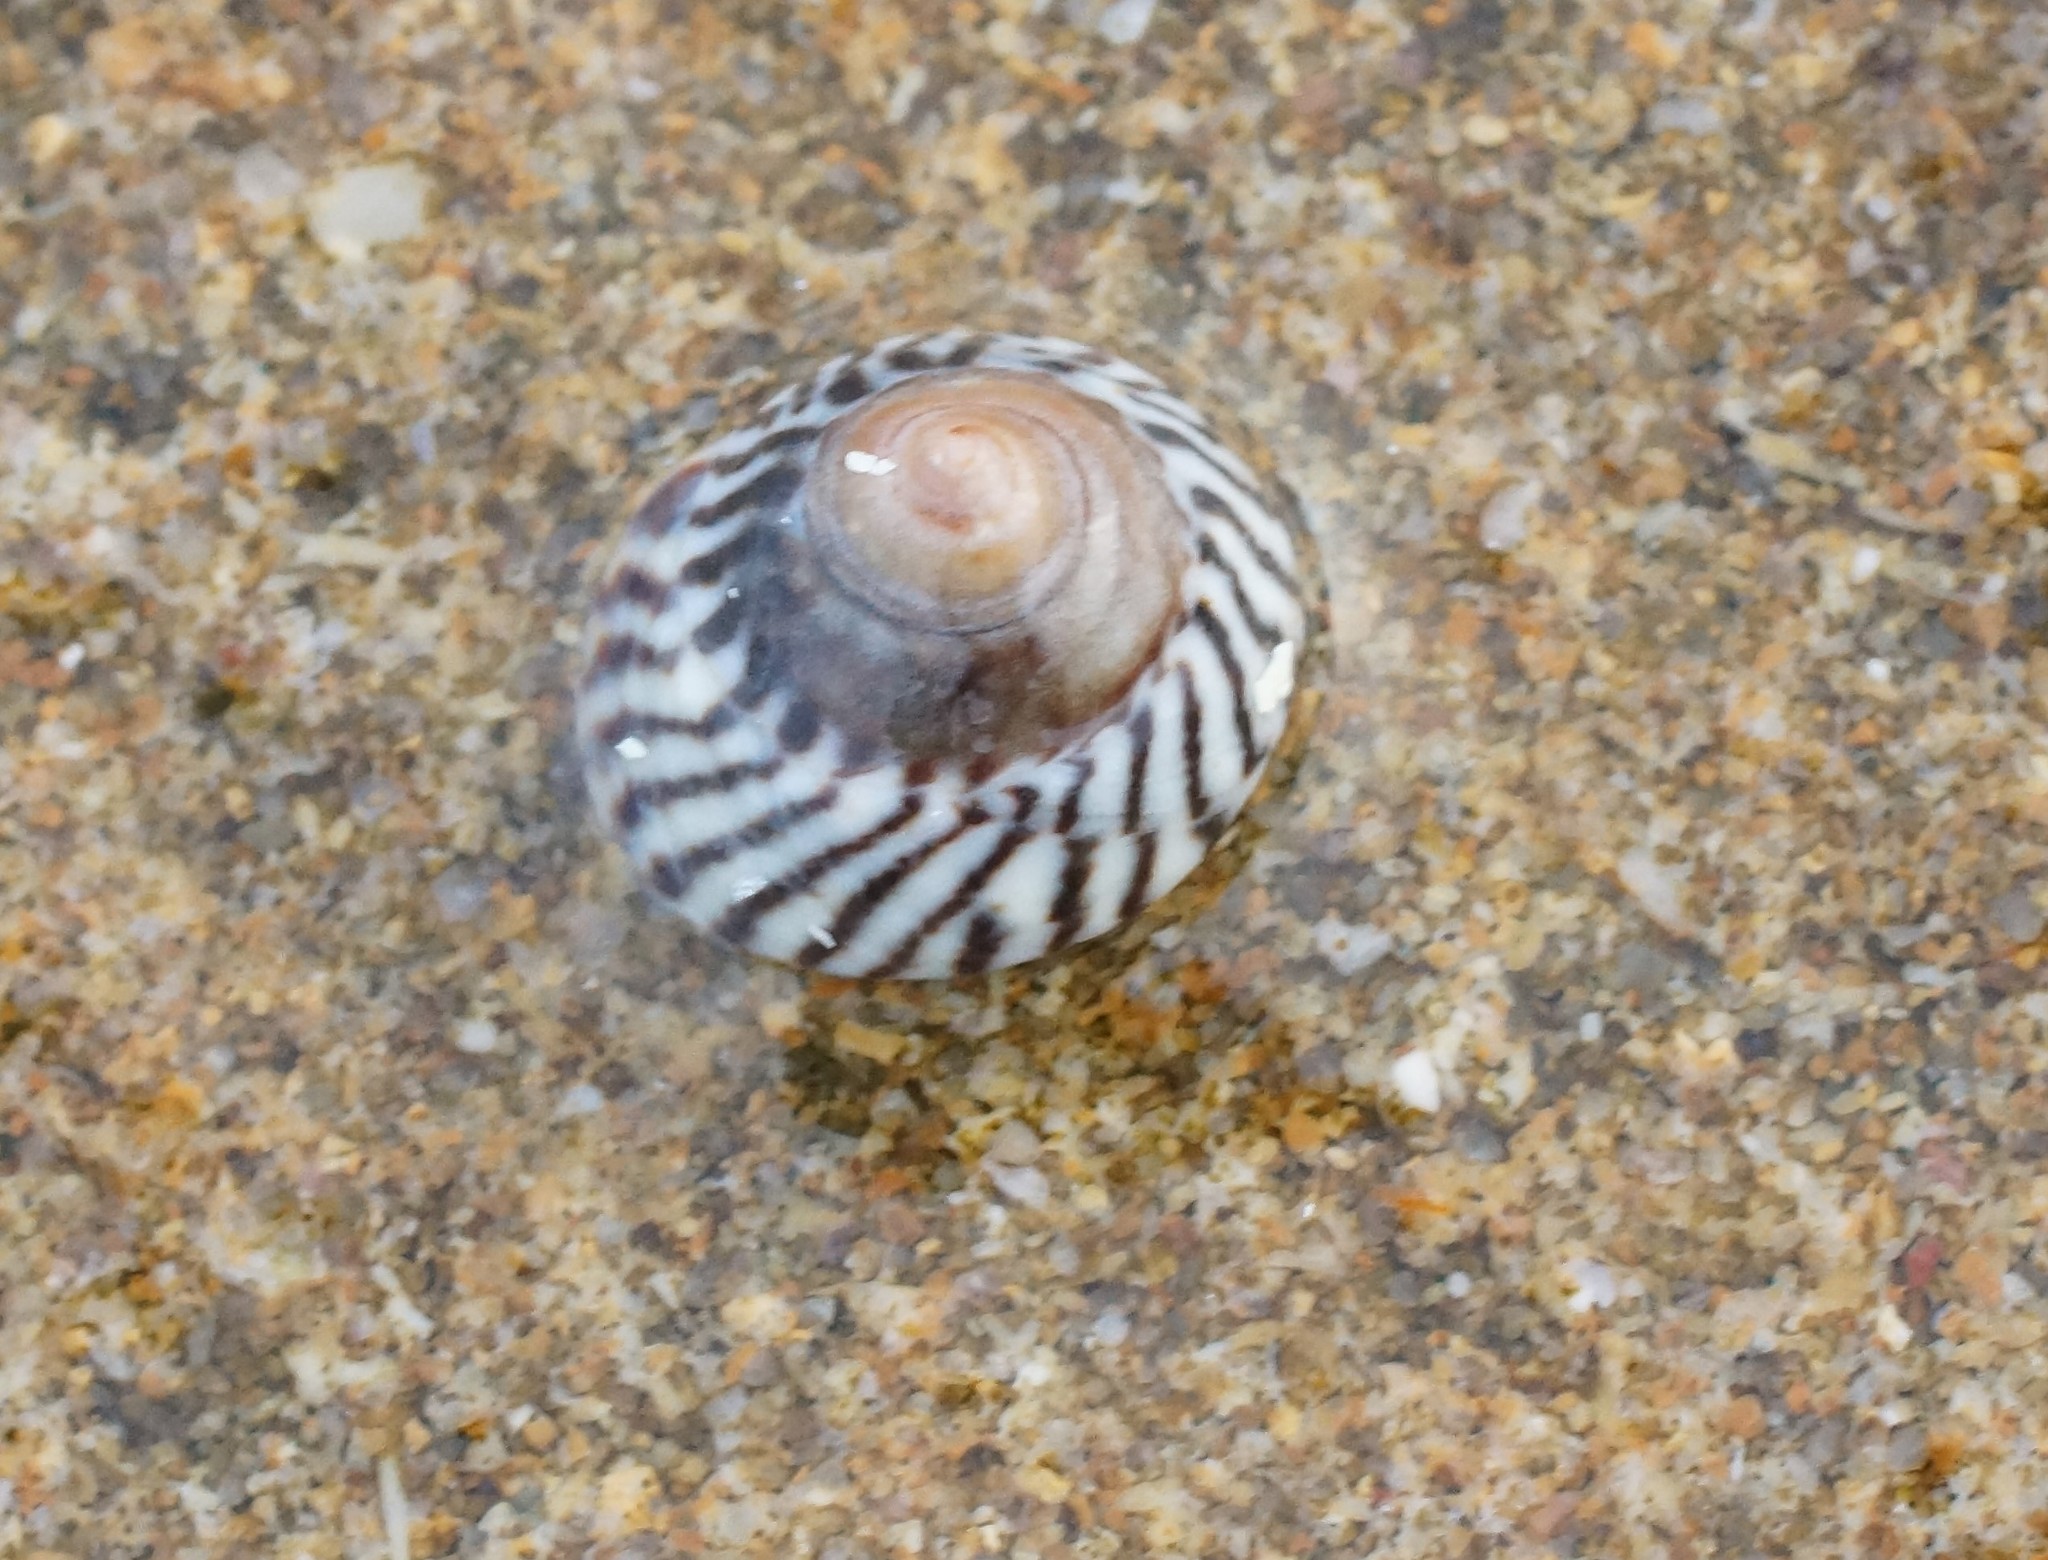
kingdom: Animalia
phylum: Mollusca
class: Gastropoda
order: Littorinimorpha
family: Littorinidae
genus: Bembicium
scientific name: Bembicium nanum
